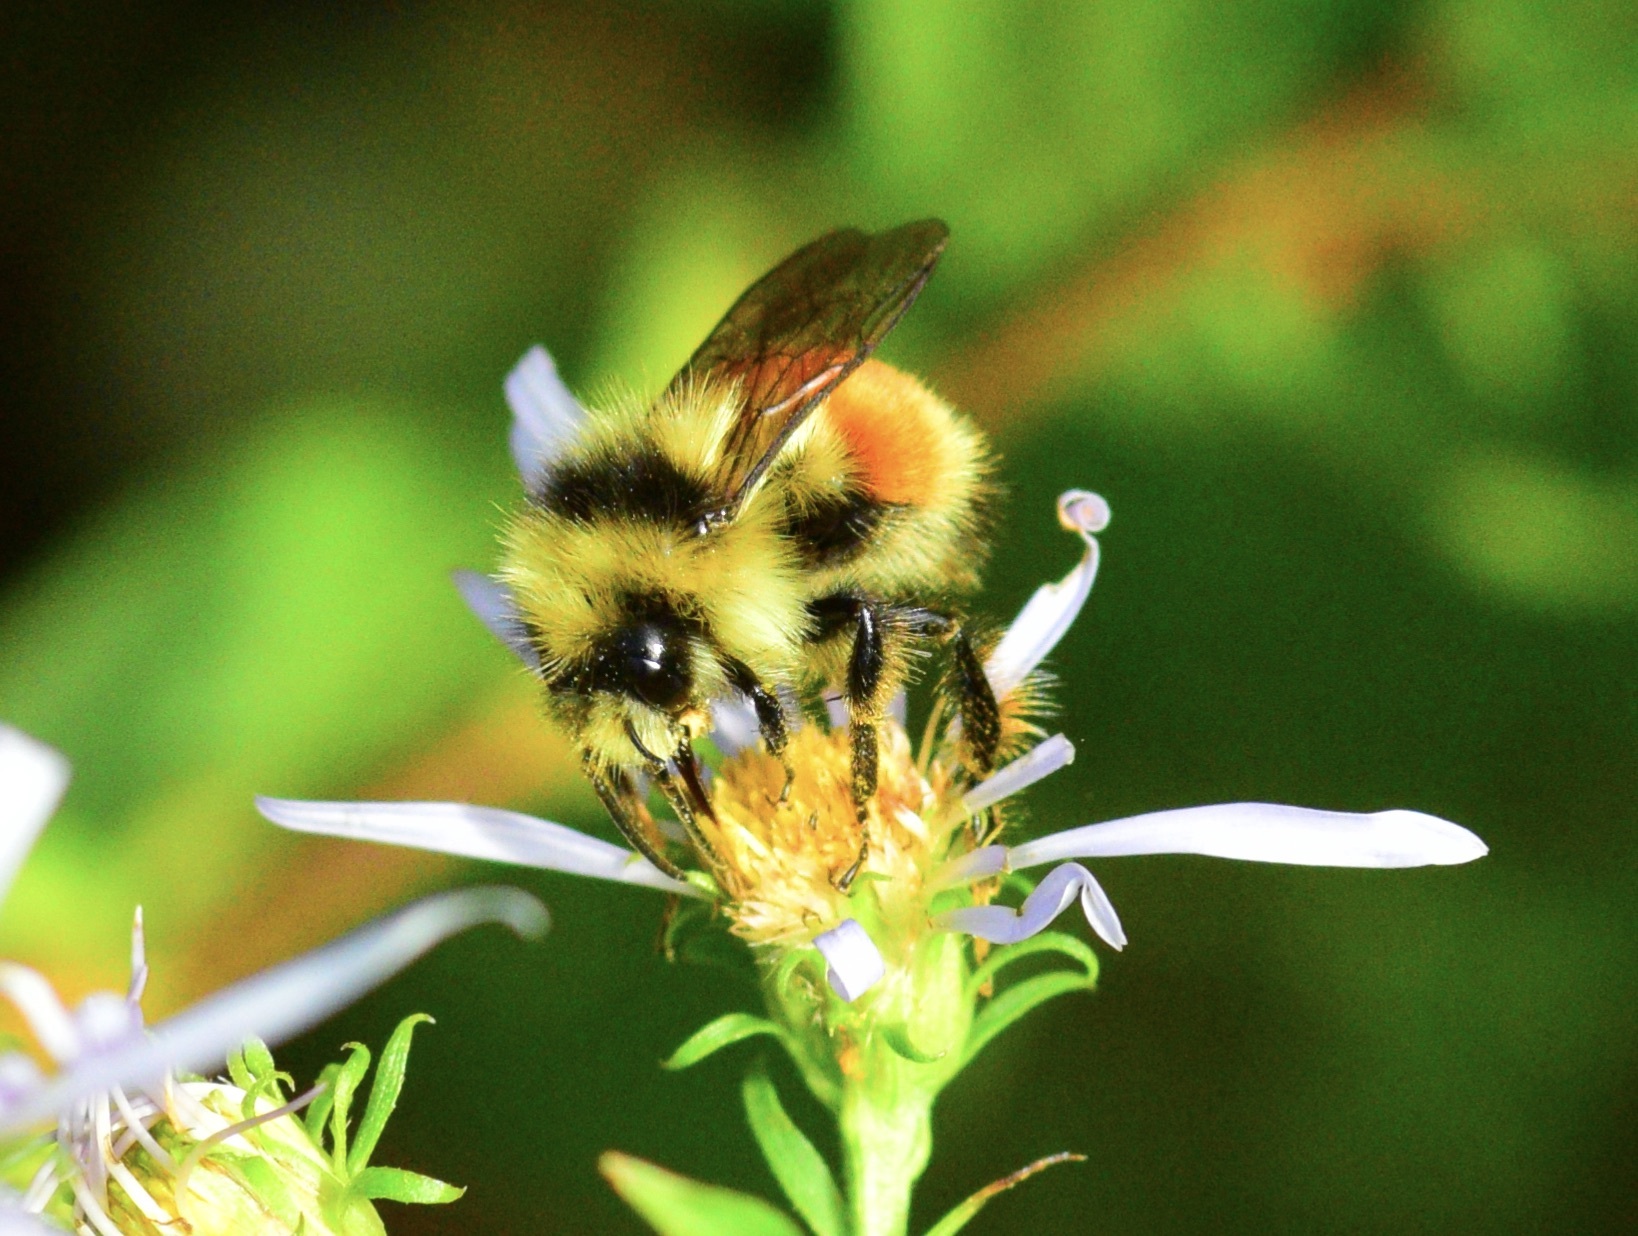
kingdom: Animalia
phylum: Arthropoda
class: Insecta
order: Hymenoptera
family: Apidae
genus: Bombus
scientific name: Bombus ternarius
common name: Tri-colored bumble bee
